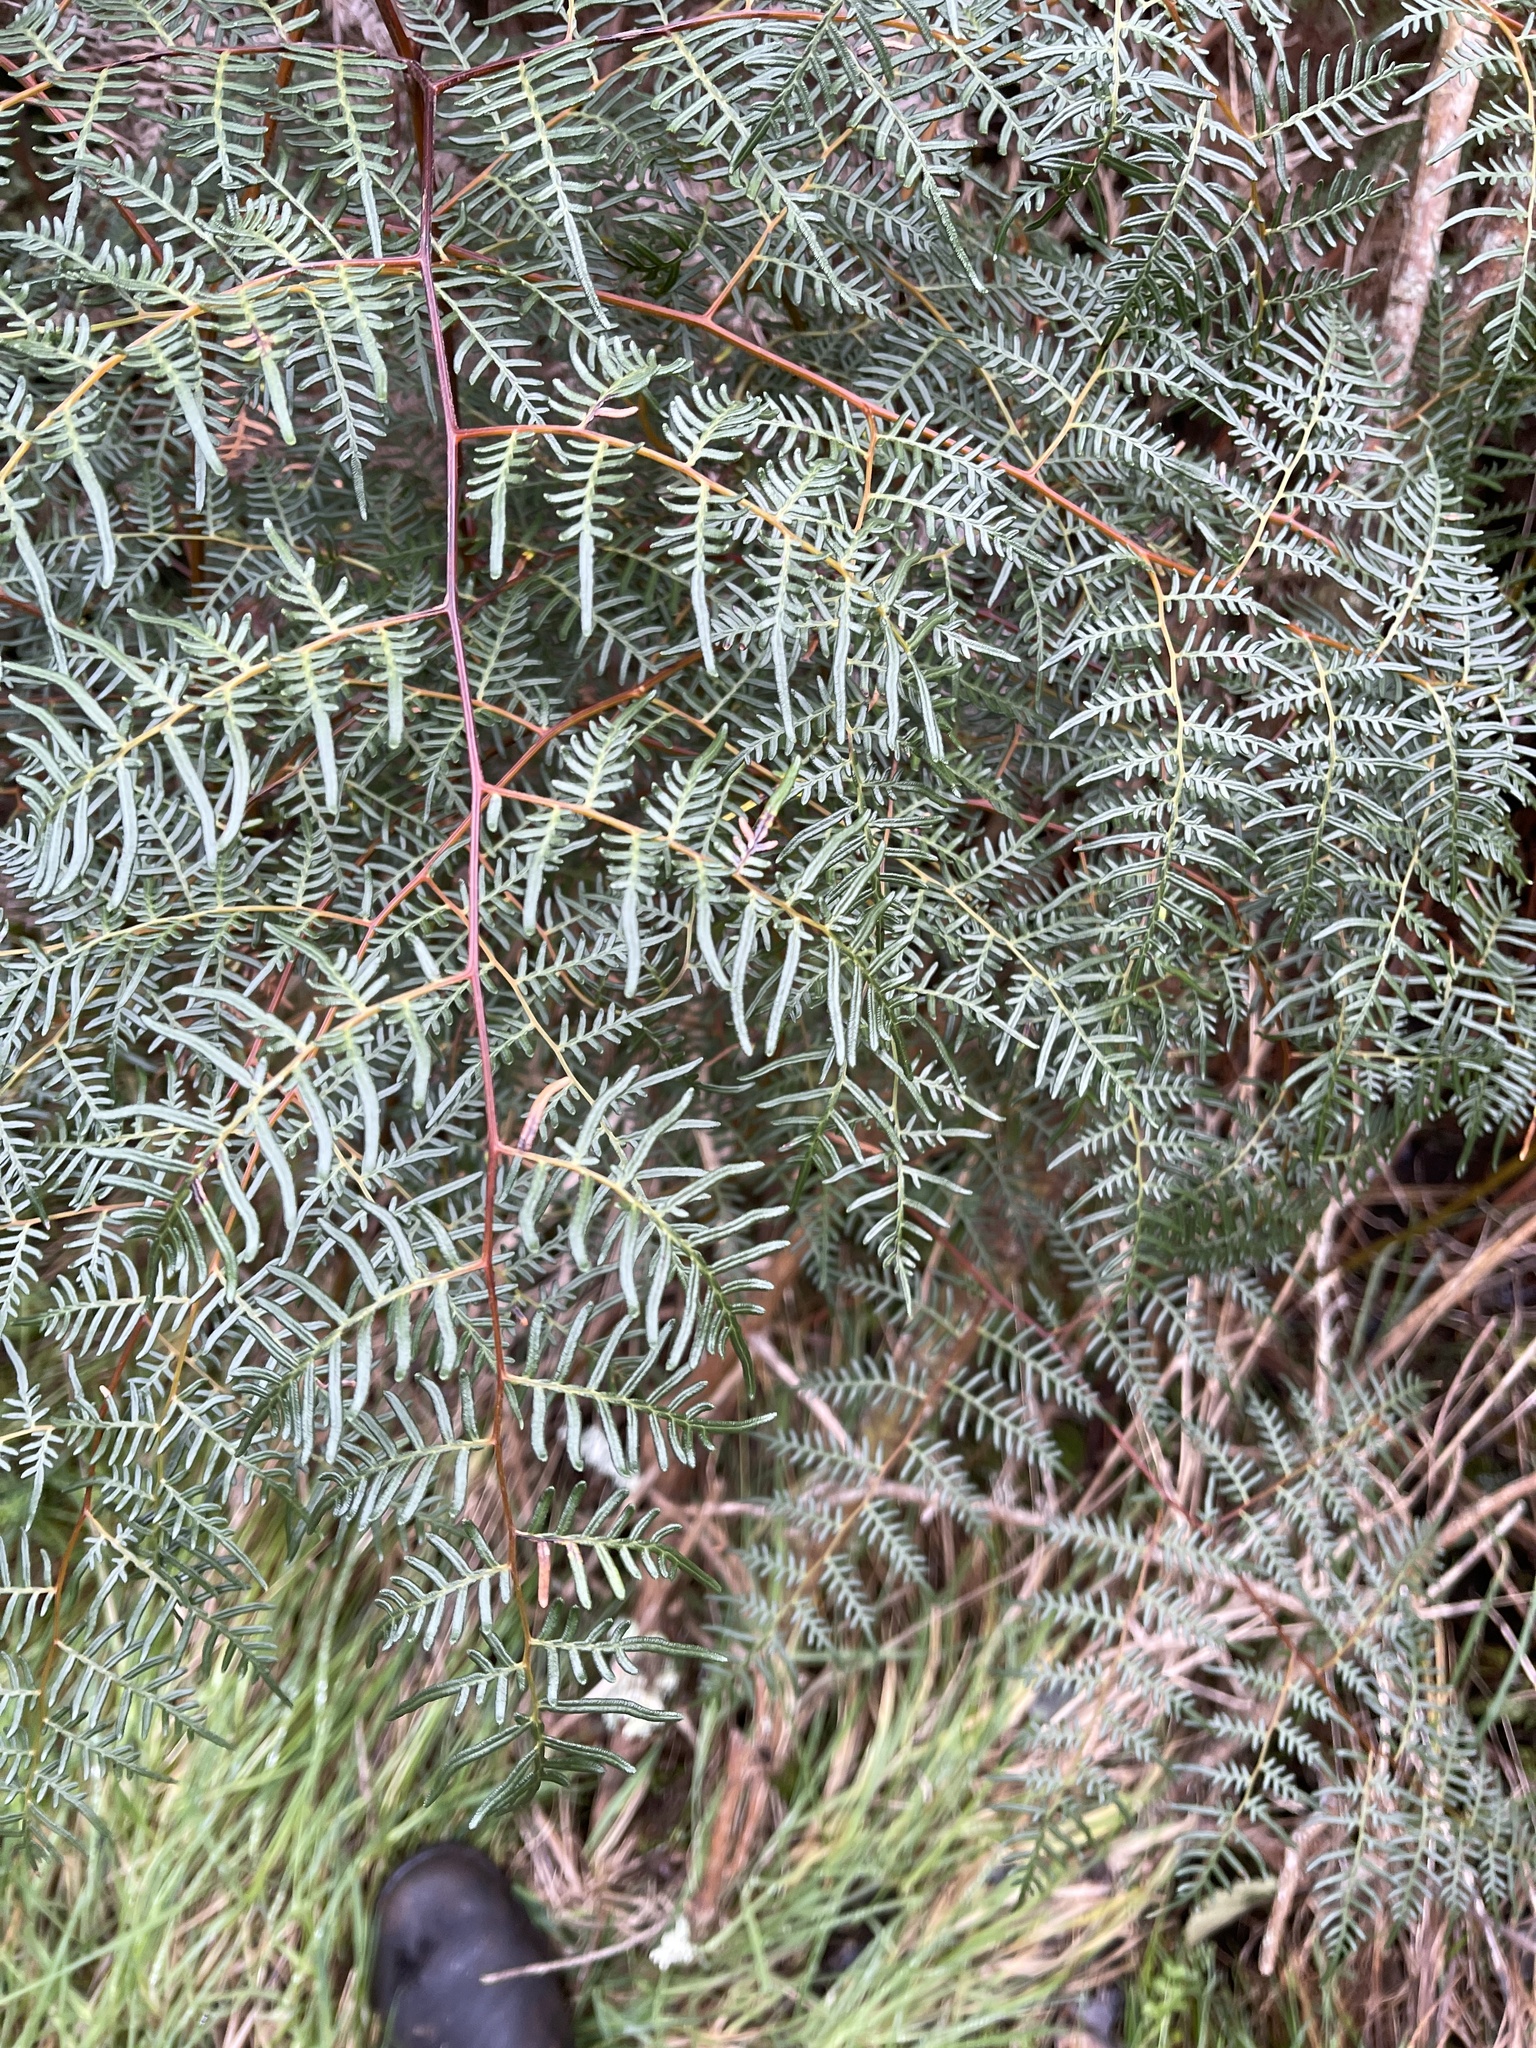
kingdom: Plantae
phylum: Tracheophyta
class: Polypodiopsida
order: Polypodiales
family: Dennstaedtiaceae
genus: Pteridium
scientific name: Pteridium esculentum
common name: Bracken fern
